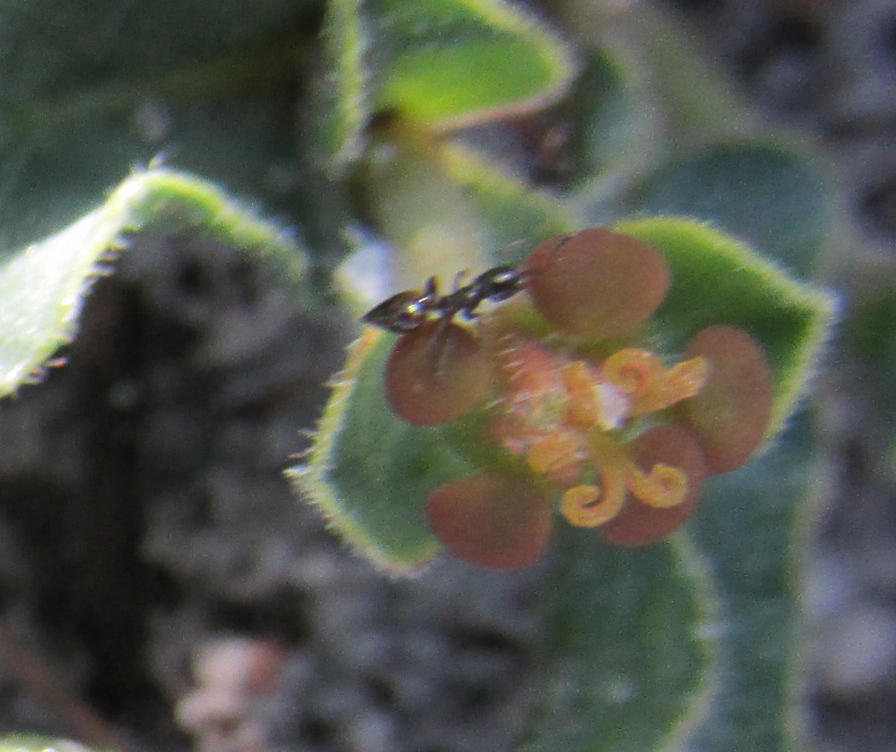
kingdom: Animalia
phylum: Arthropoda
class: Insecta
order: Hymenoptera
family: Formicidae
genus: Crematogaster
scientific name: Crematogaster peringueyi
